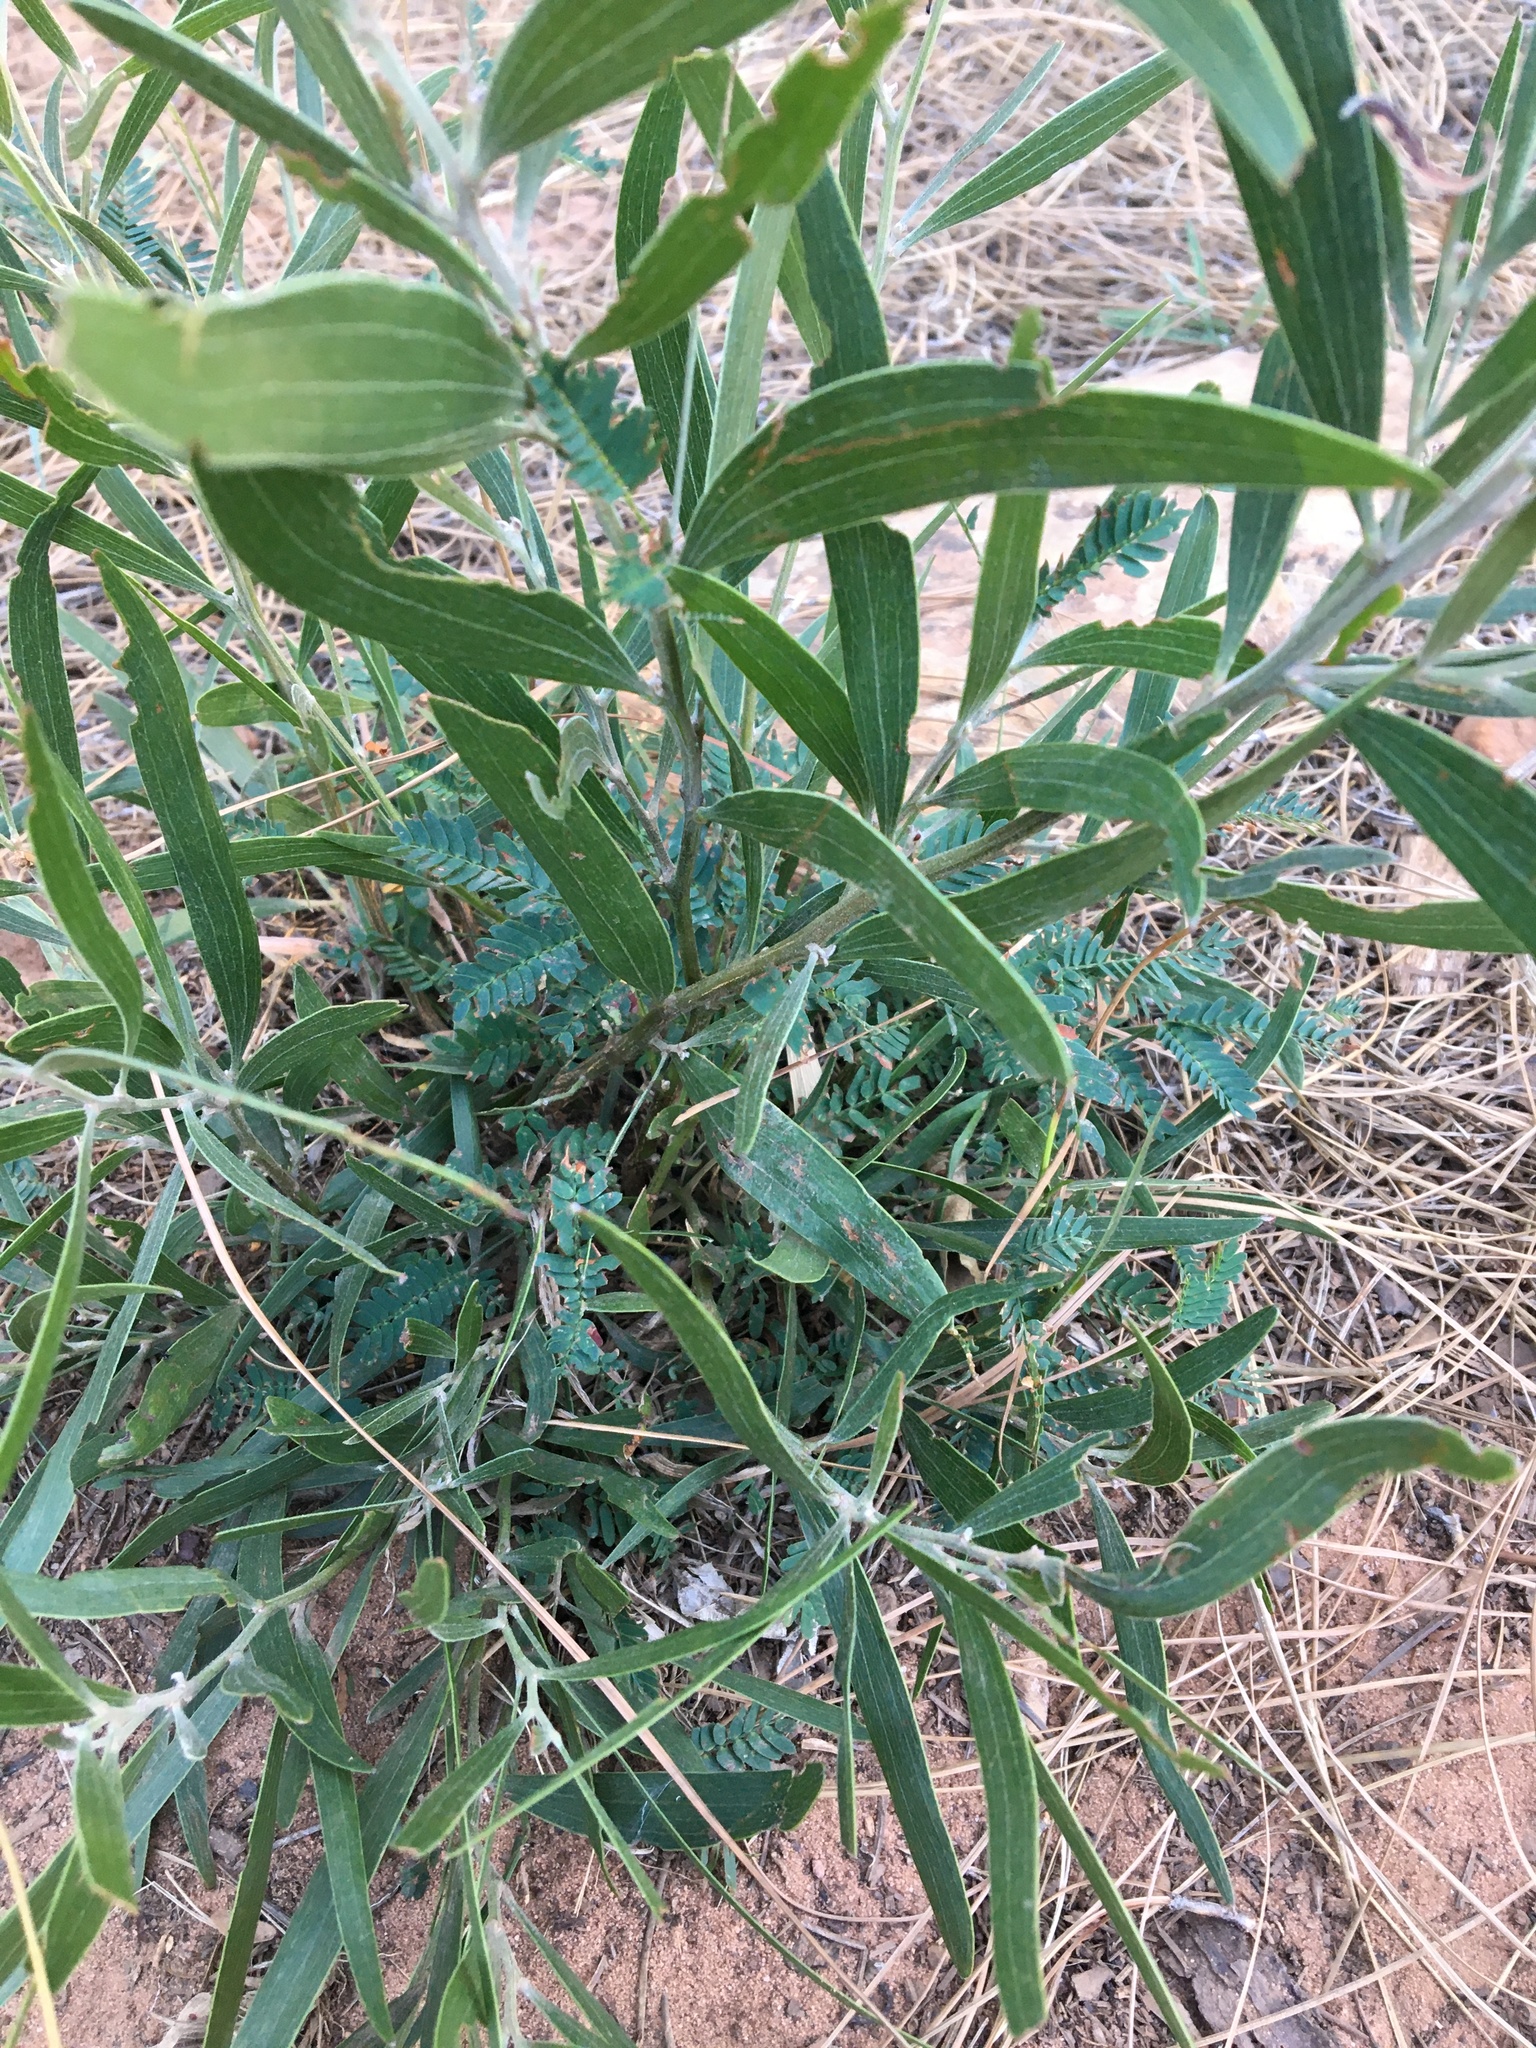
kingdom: Plantae
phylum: Tracheophyta
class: Magnoliopsida
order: Fabales
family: Fabaceae
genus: Acacia
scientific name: Acacia melanoxylon
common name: Blackwood
